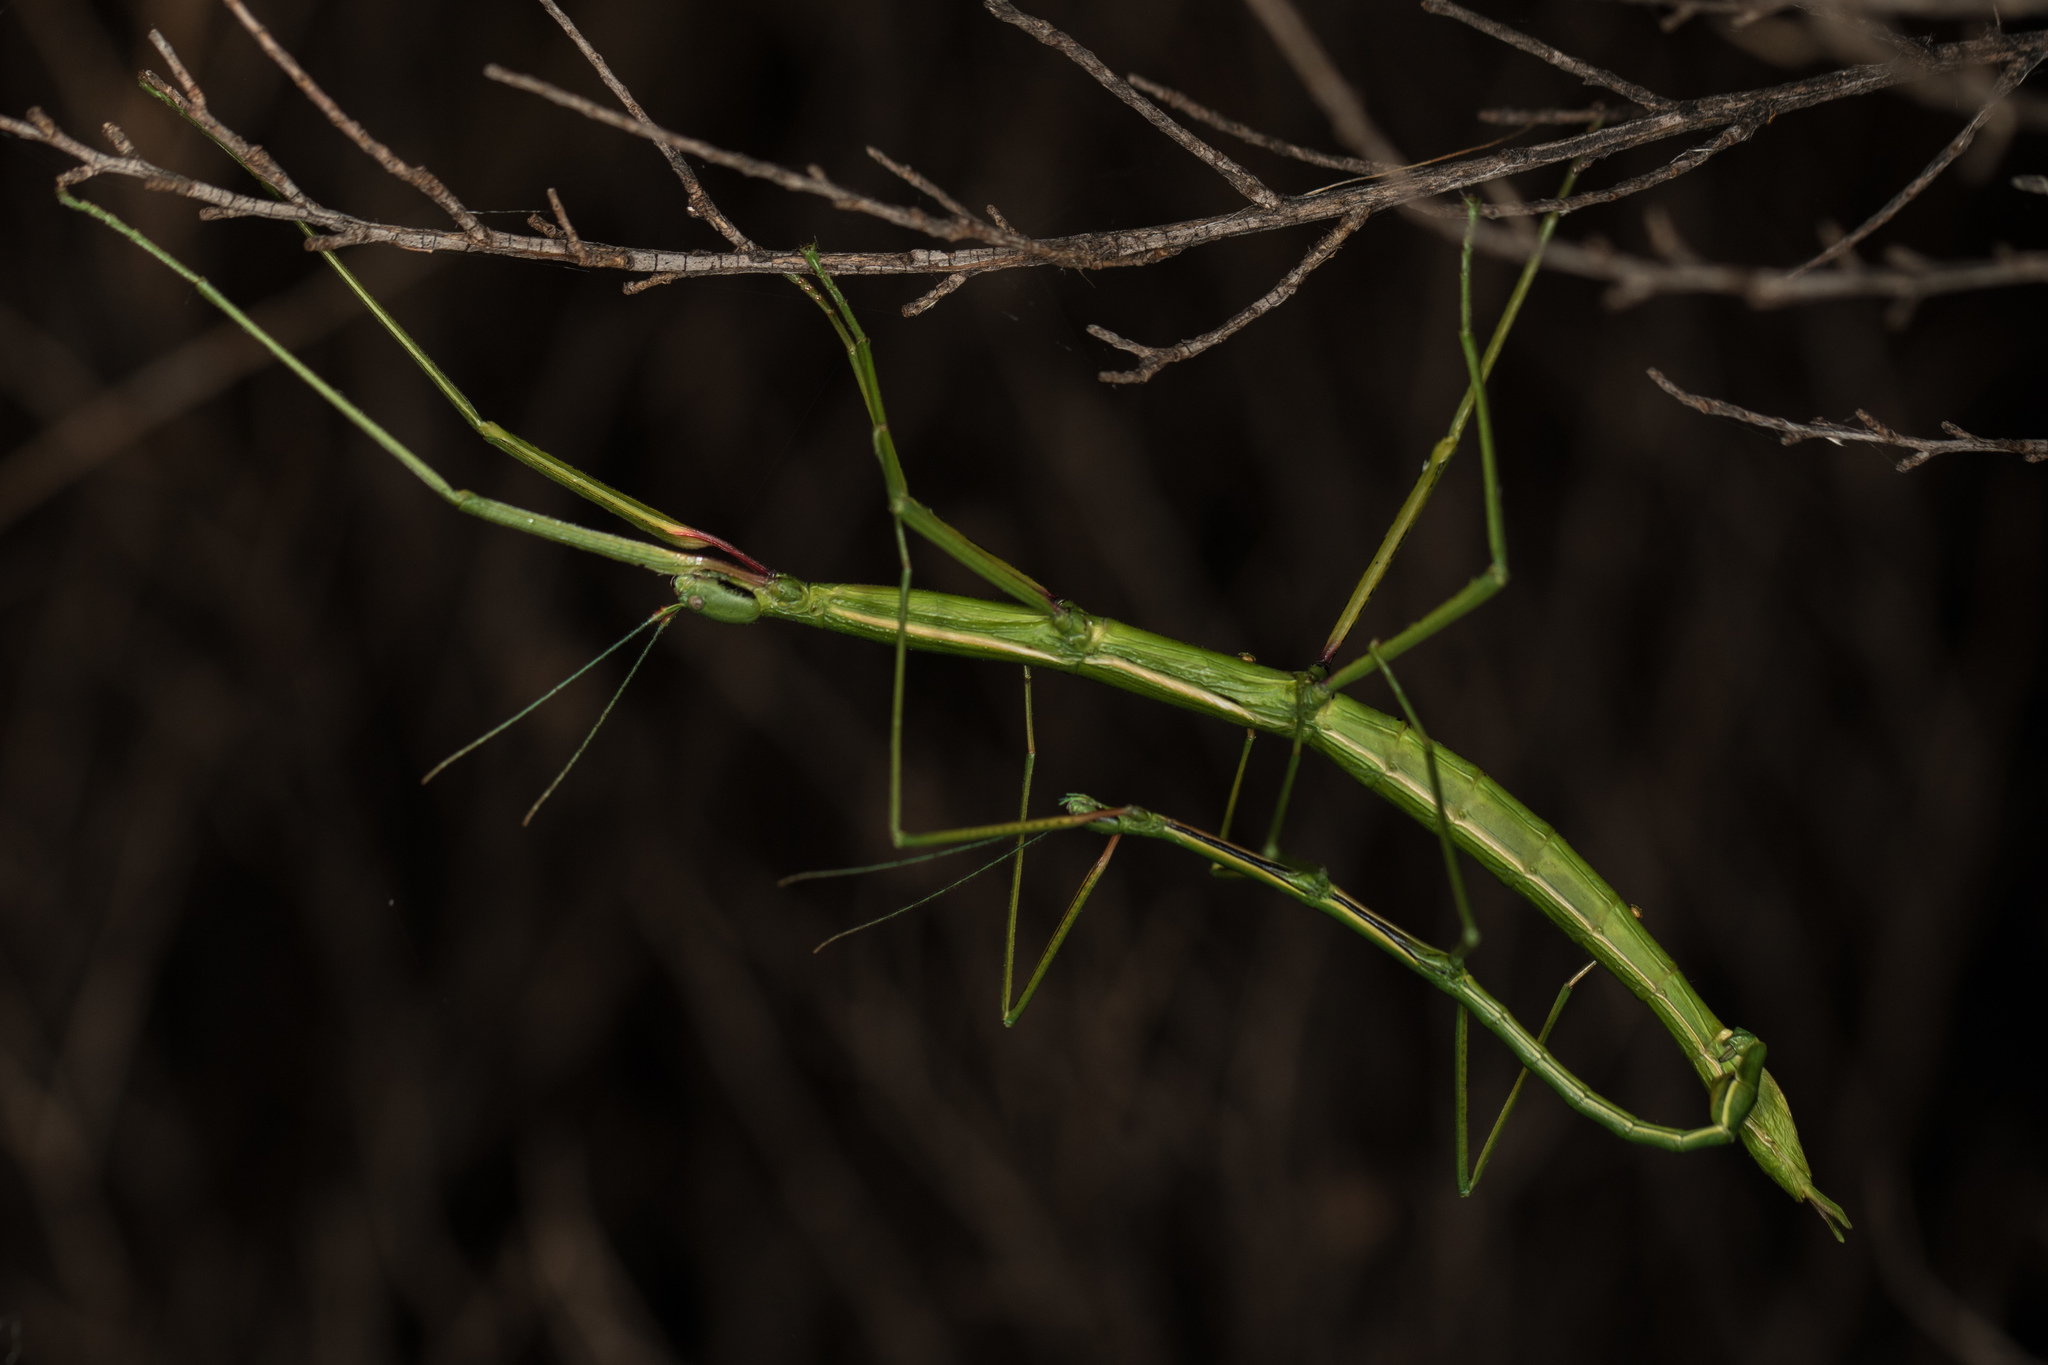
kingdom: Animalia
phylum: Arthropoda
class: Insecta
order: Phasmida
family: Phasmatidae
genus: Clitarchus
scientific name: Clitarchus hookeri
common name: Smooth stick insect
